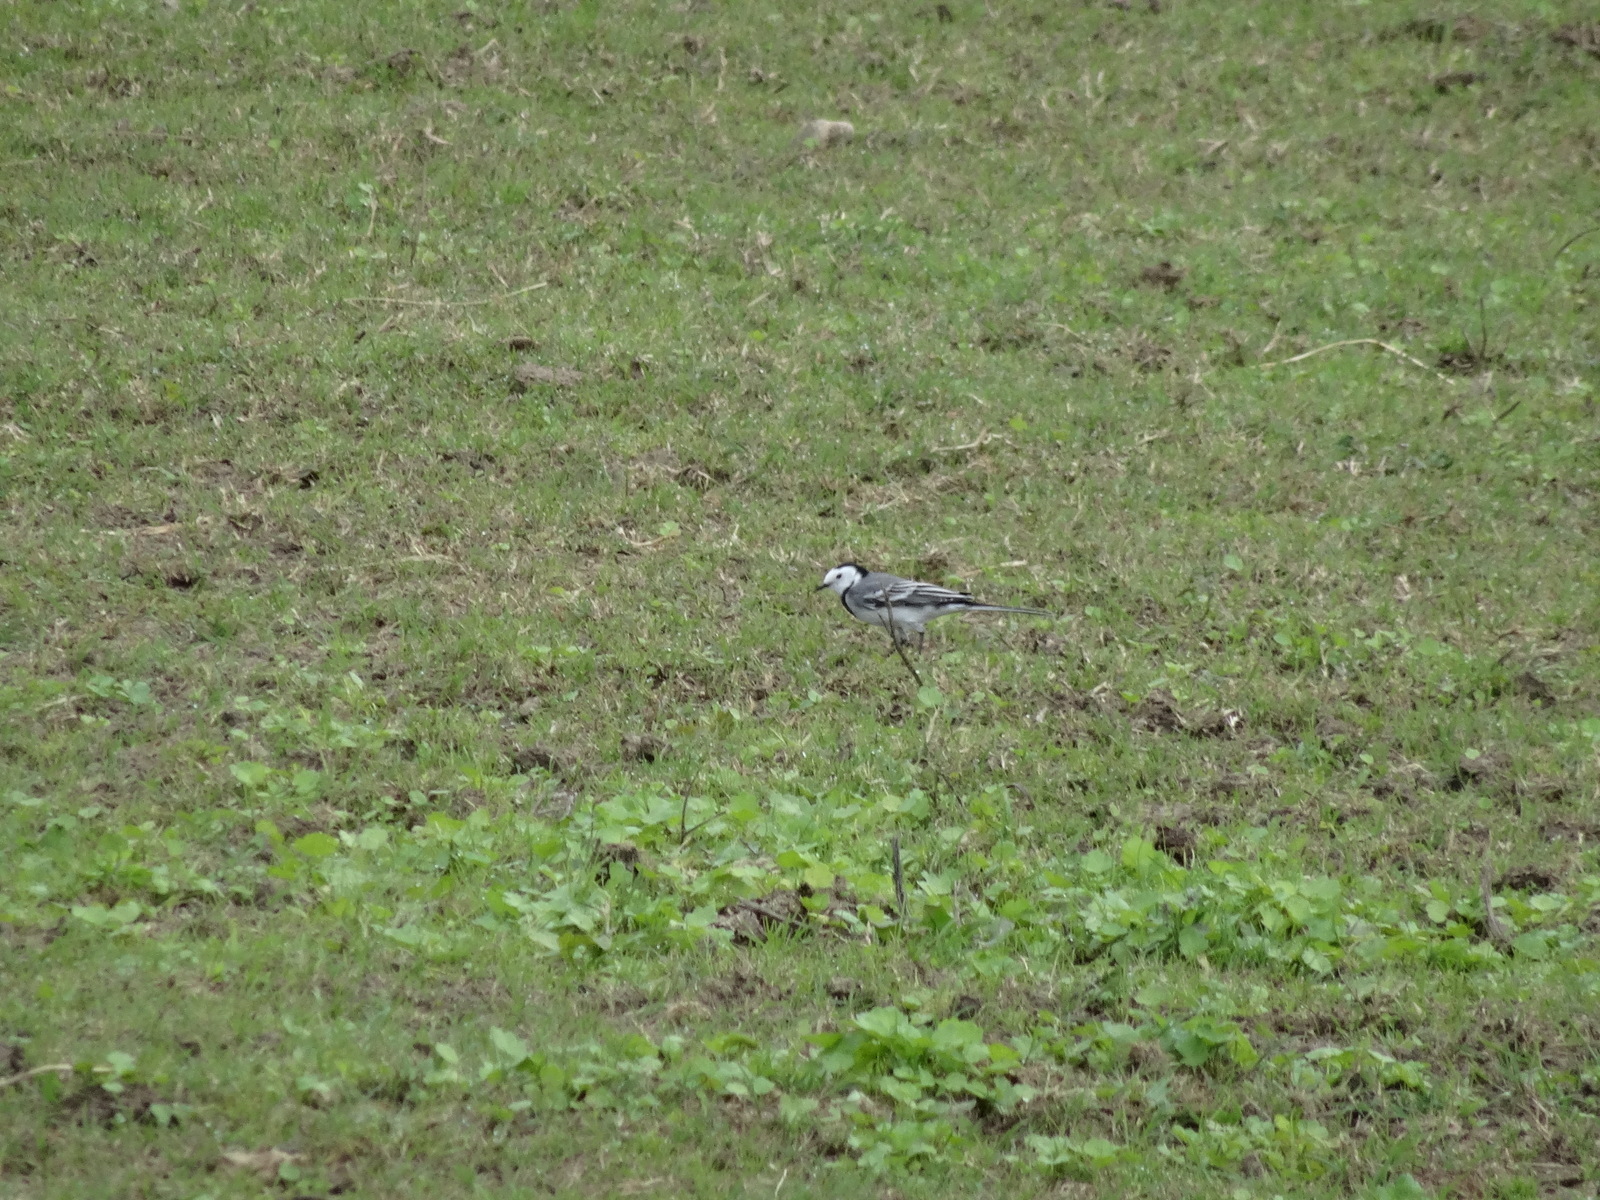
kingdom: Animalia
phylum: Chordata
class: Aves
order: Passeriformes
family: Motacillidae
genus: Motacilla
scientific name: Motacilla alba
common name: White wagtail
